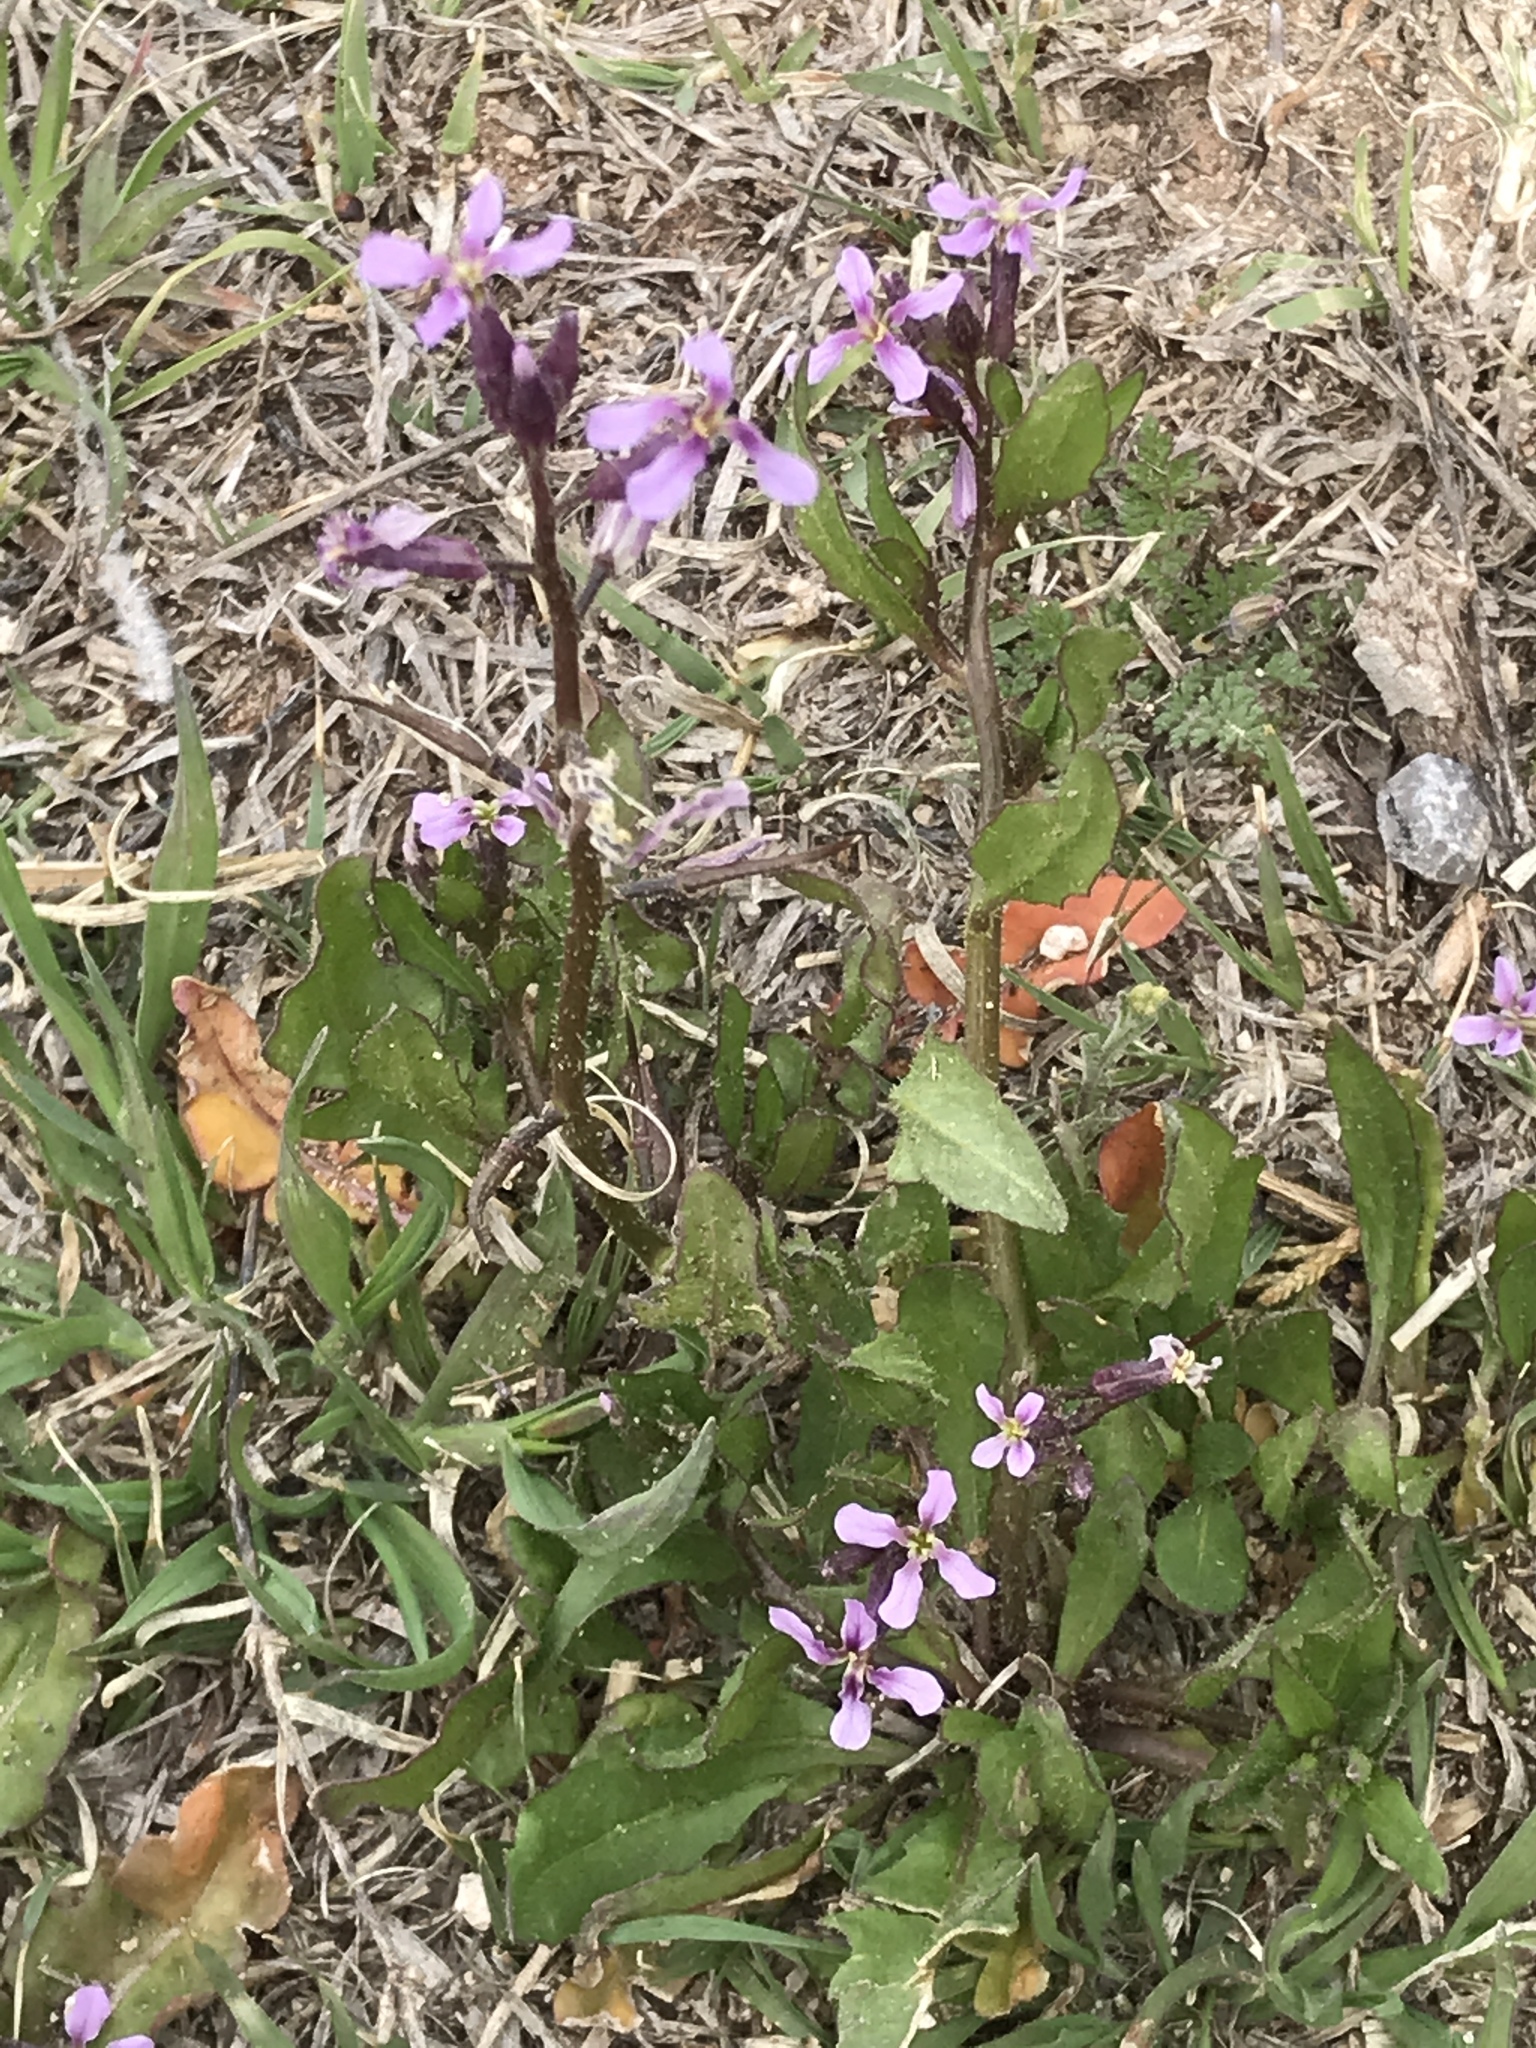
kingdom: Plantae
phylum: Tracheophyta
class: Magnoliopsida
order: Brassicales
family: Brassicaceae
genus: Chorispora
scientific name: Chorispora tenella
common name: Crossflower
